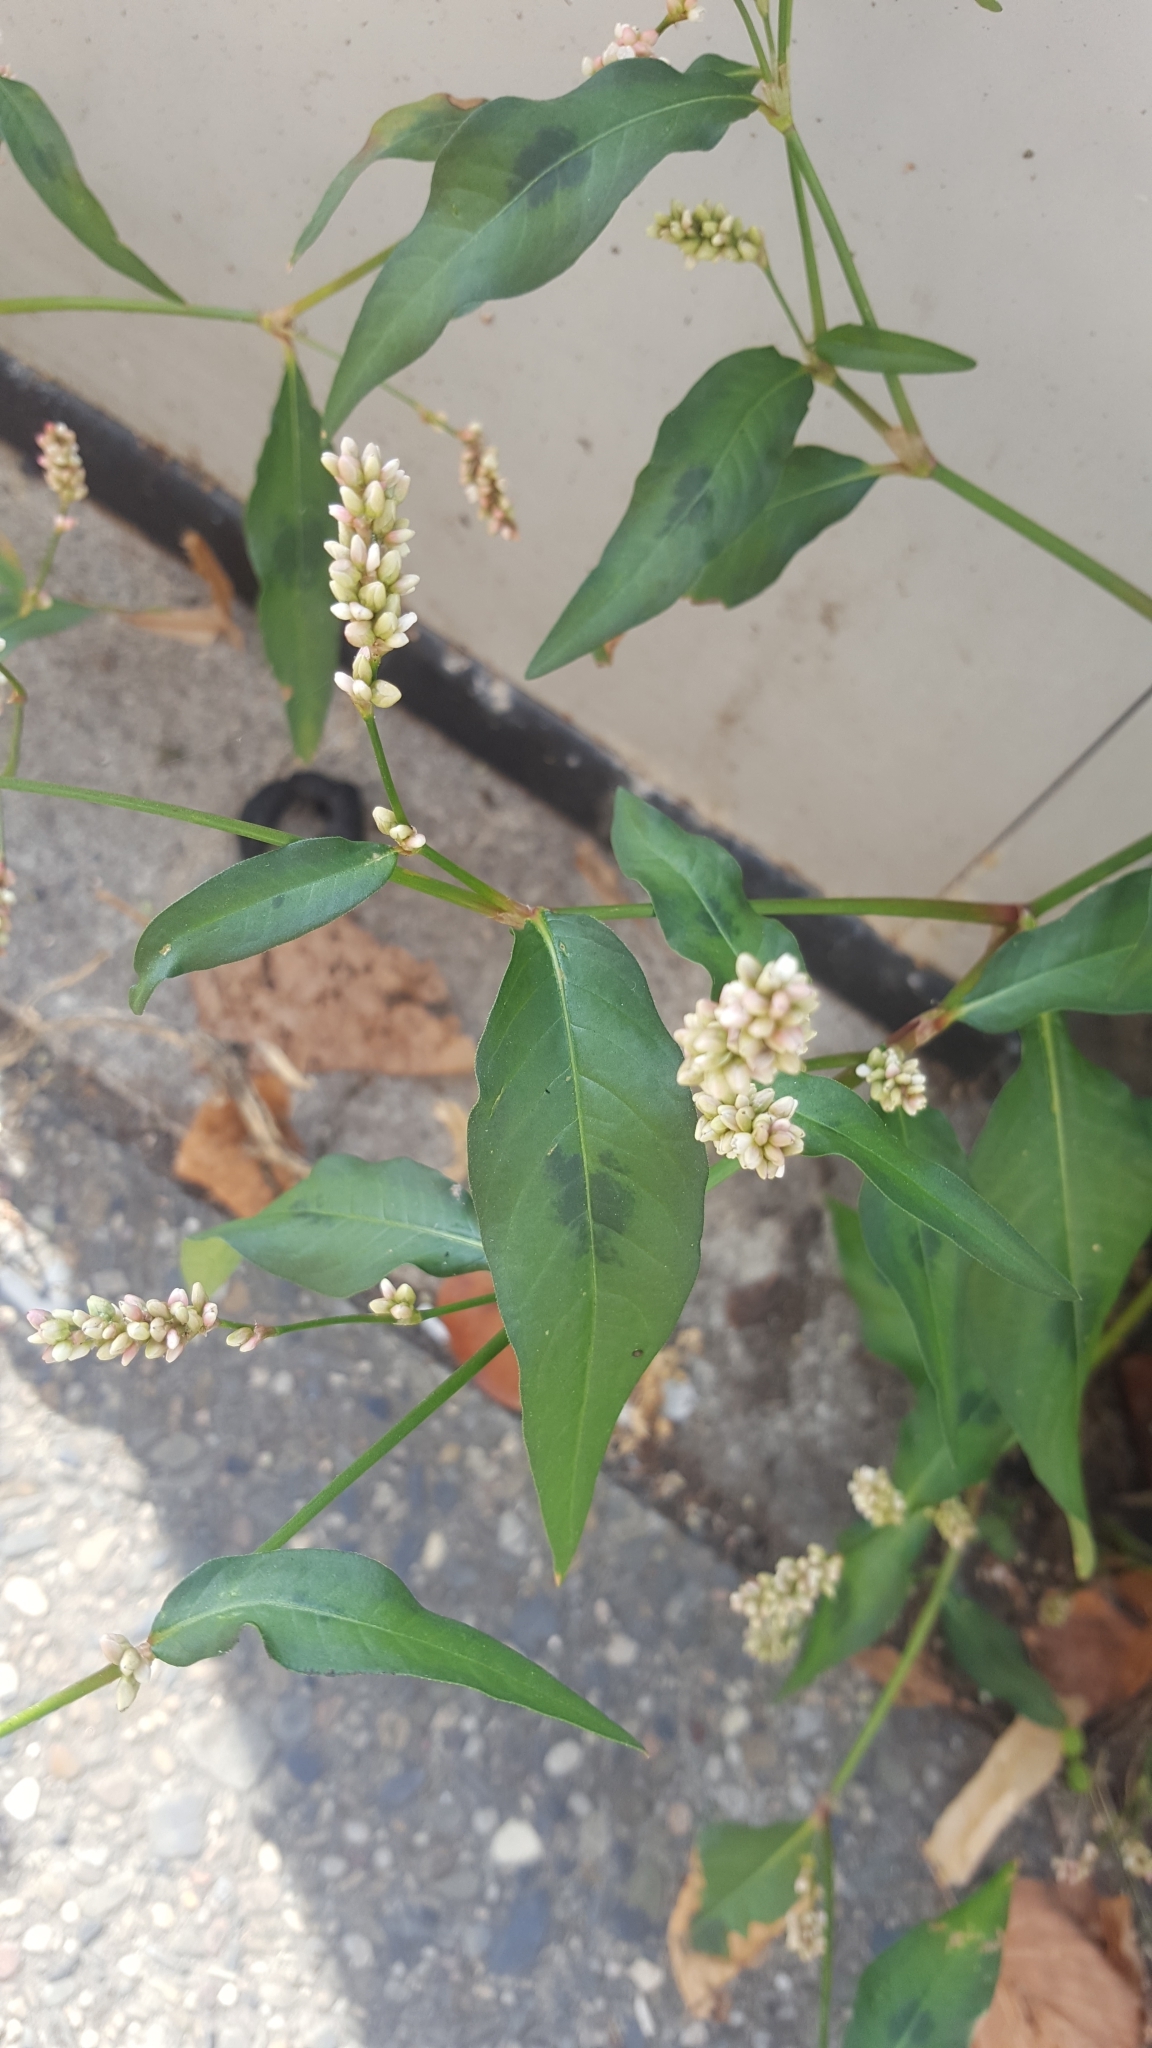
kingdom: Plantae
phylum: Tracheophyta
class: Magnoliopsida
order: Caryophyllales
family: Polygonaceae
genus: Persicaria
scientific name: Persicaria maculosa
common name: Redshank
